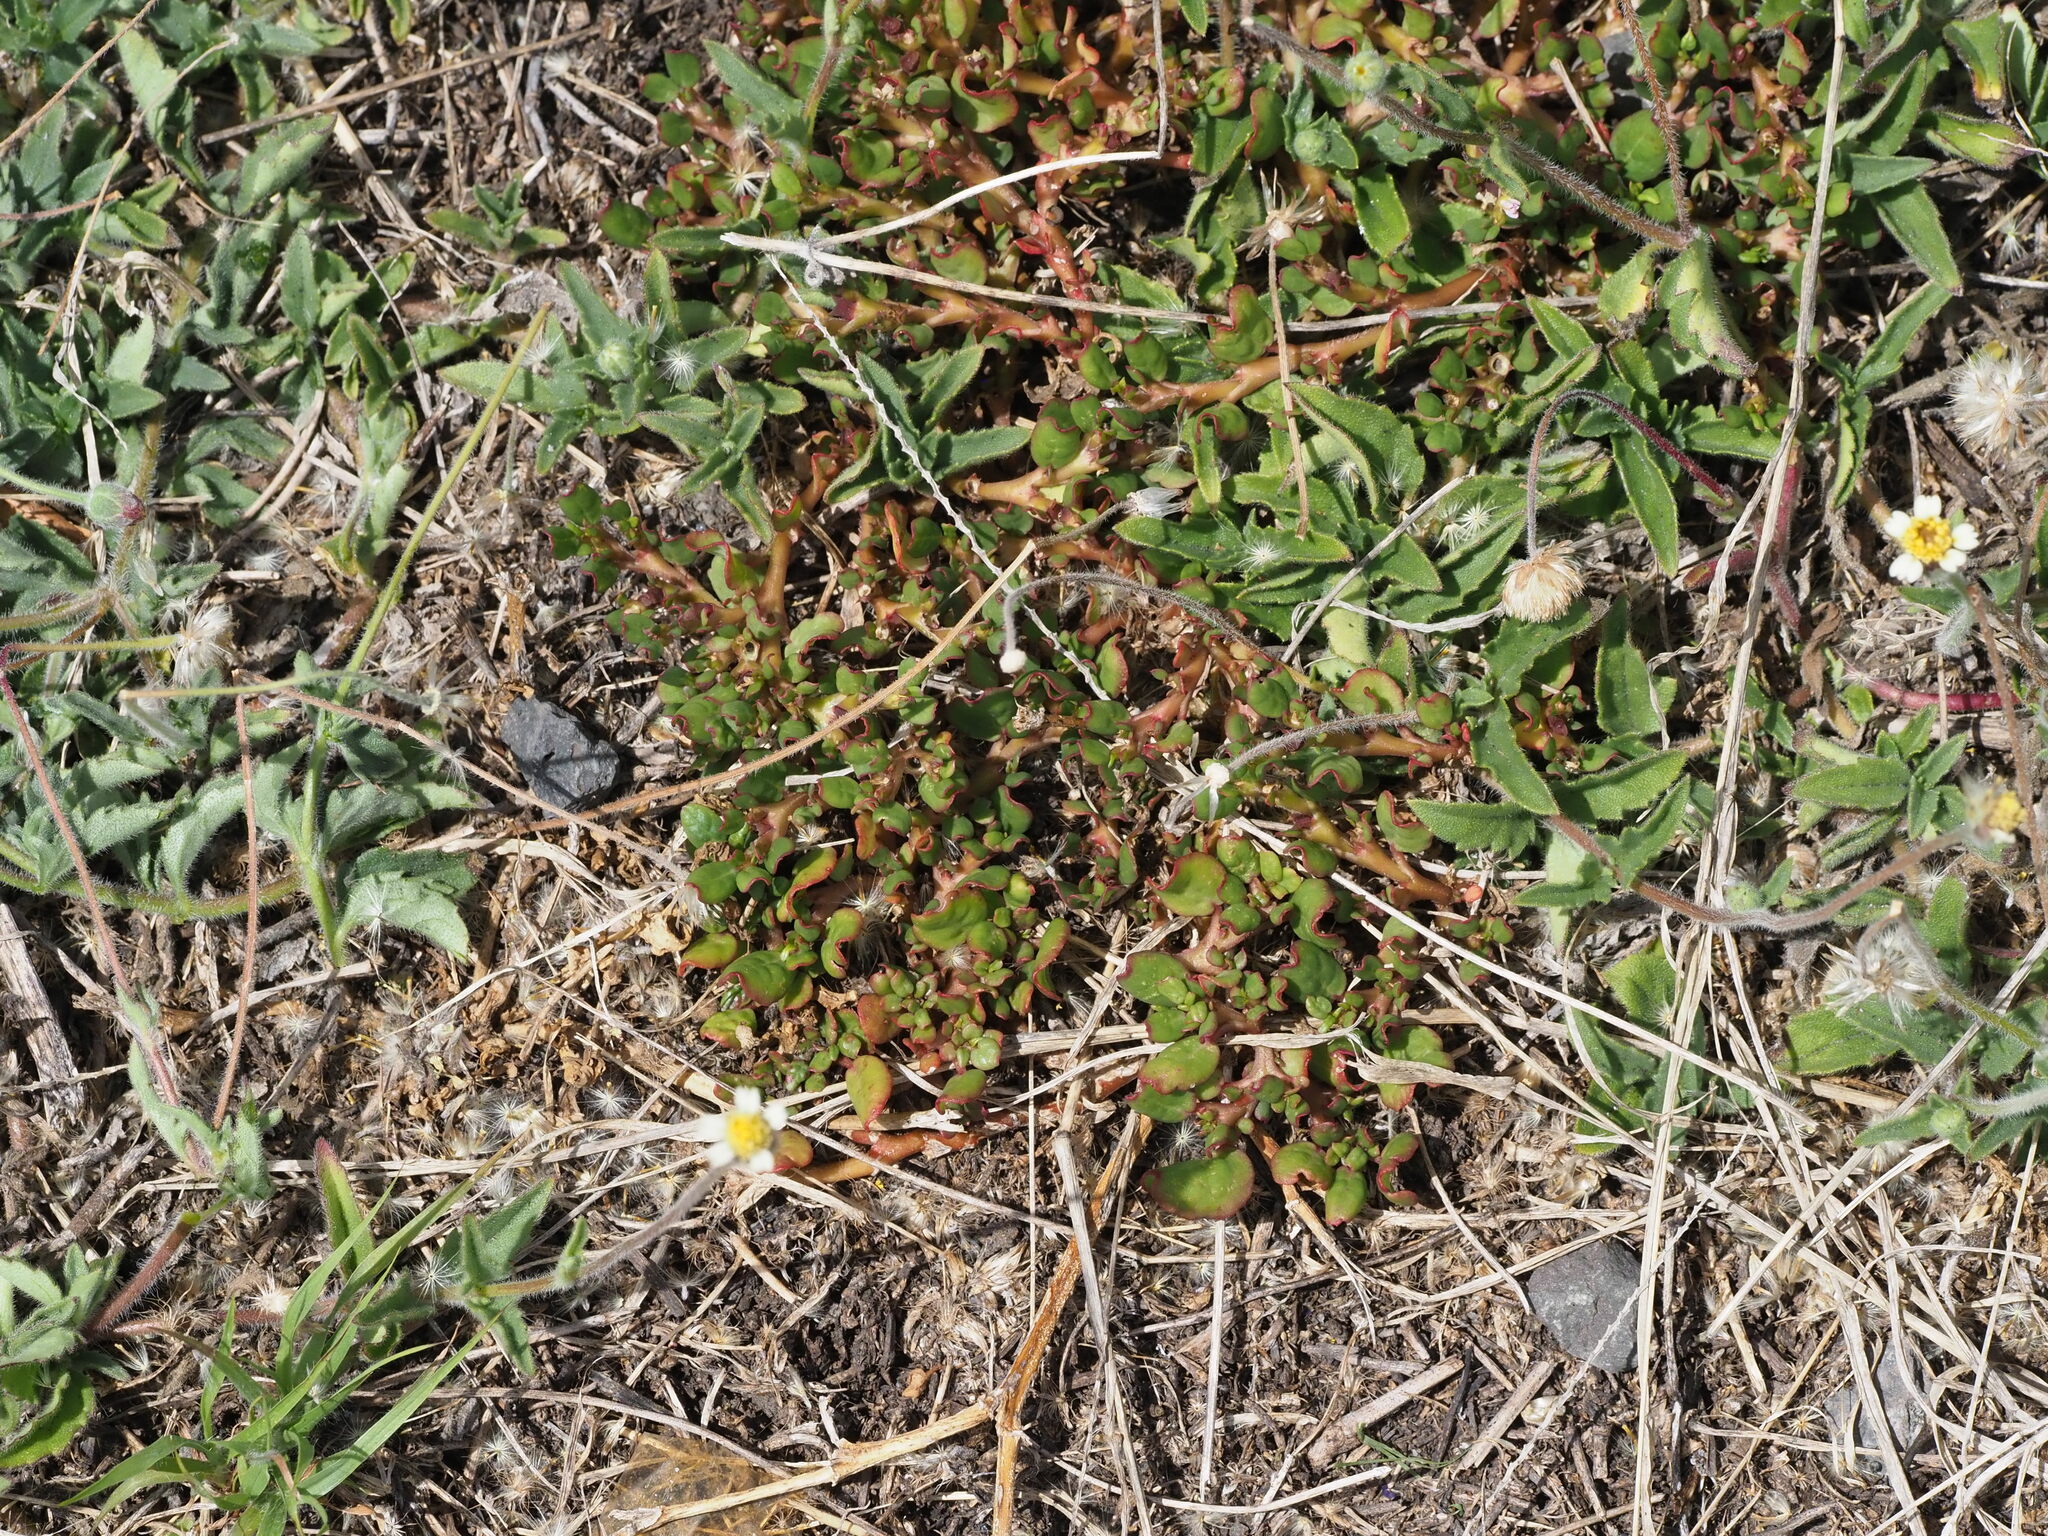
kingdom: Plantae
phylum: Tracheophyta
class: Magnoliopsida
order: Asterales
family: Asteraceae
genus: Tridax
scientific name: Tridax procumbens
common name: Coatbuttons
